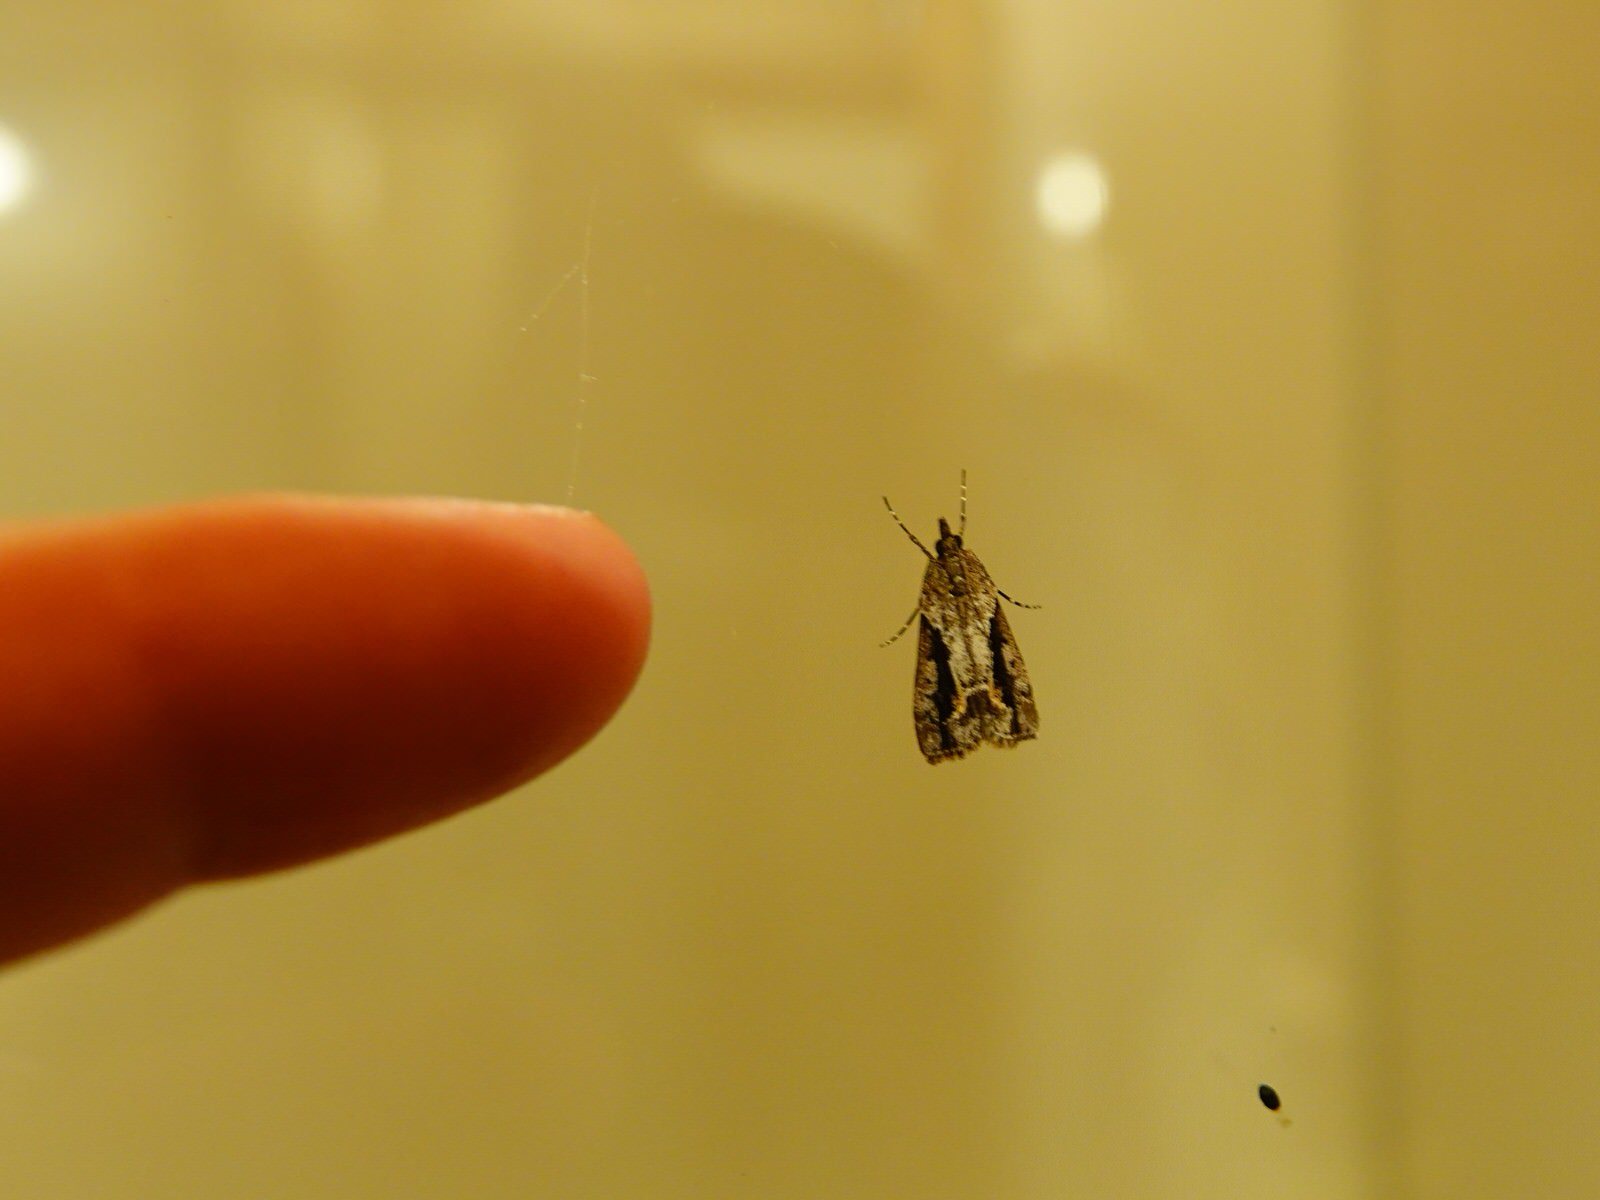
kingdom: Animalia
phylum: Arthropoda
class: Insecta
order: Lepidoptera
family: Crambidae
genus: Eudonia
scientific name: Eudonia submarginalis
